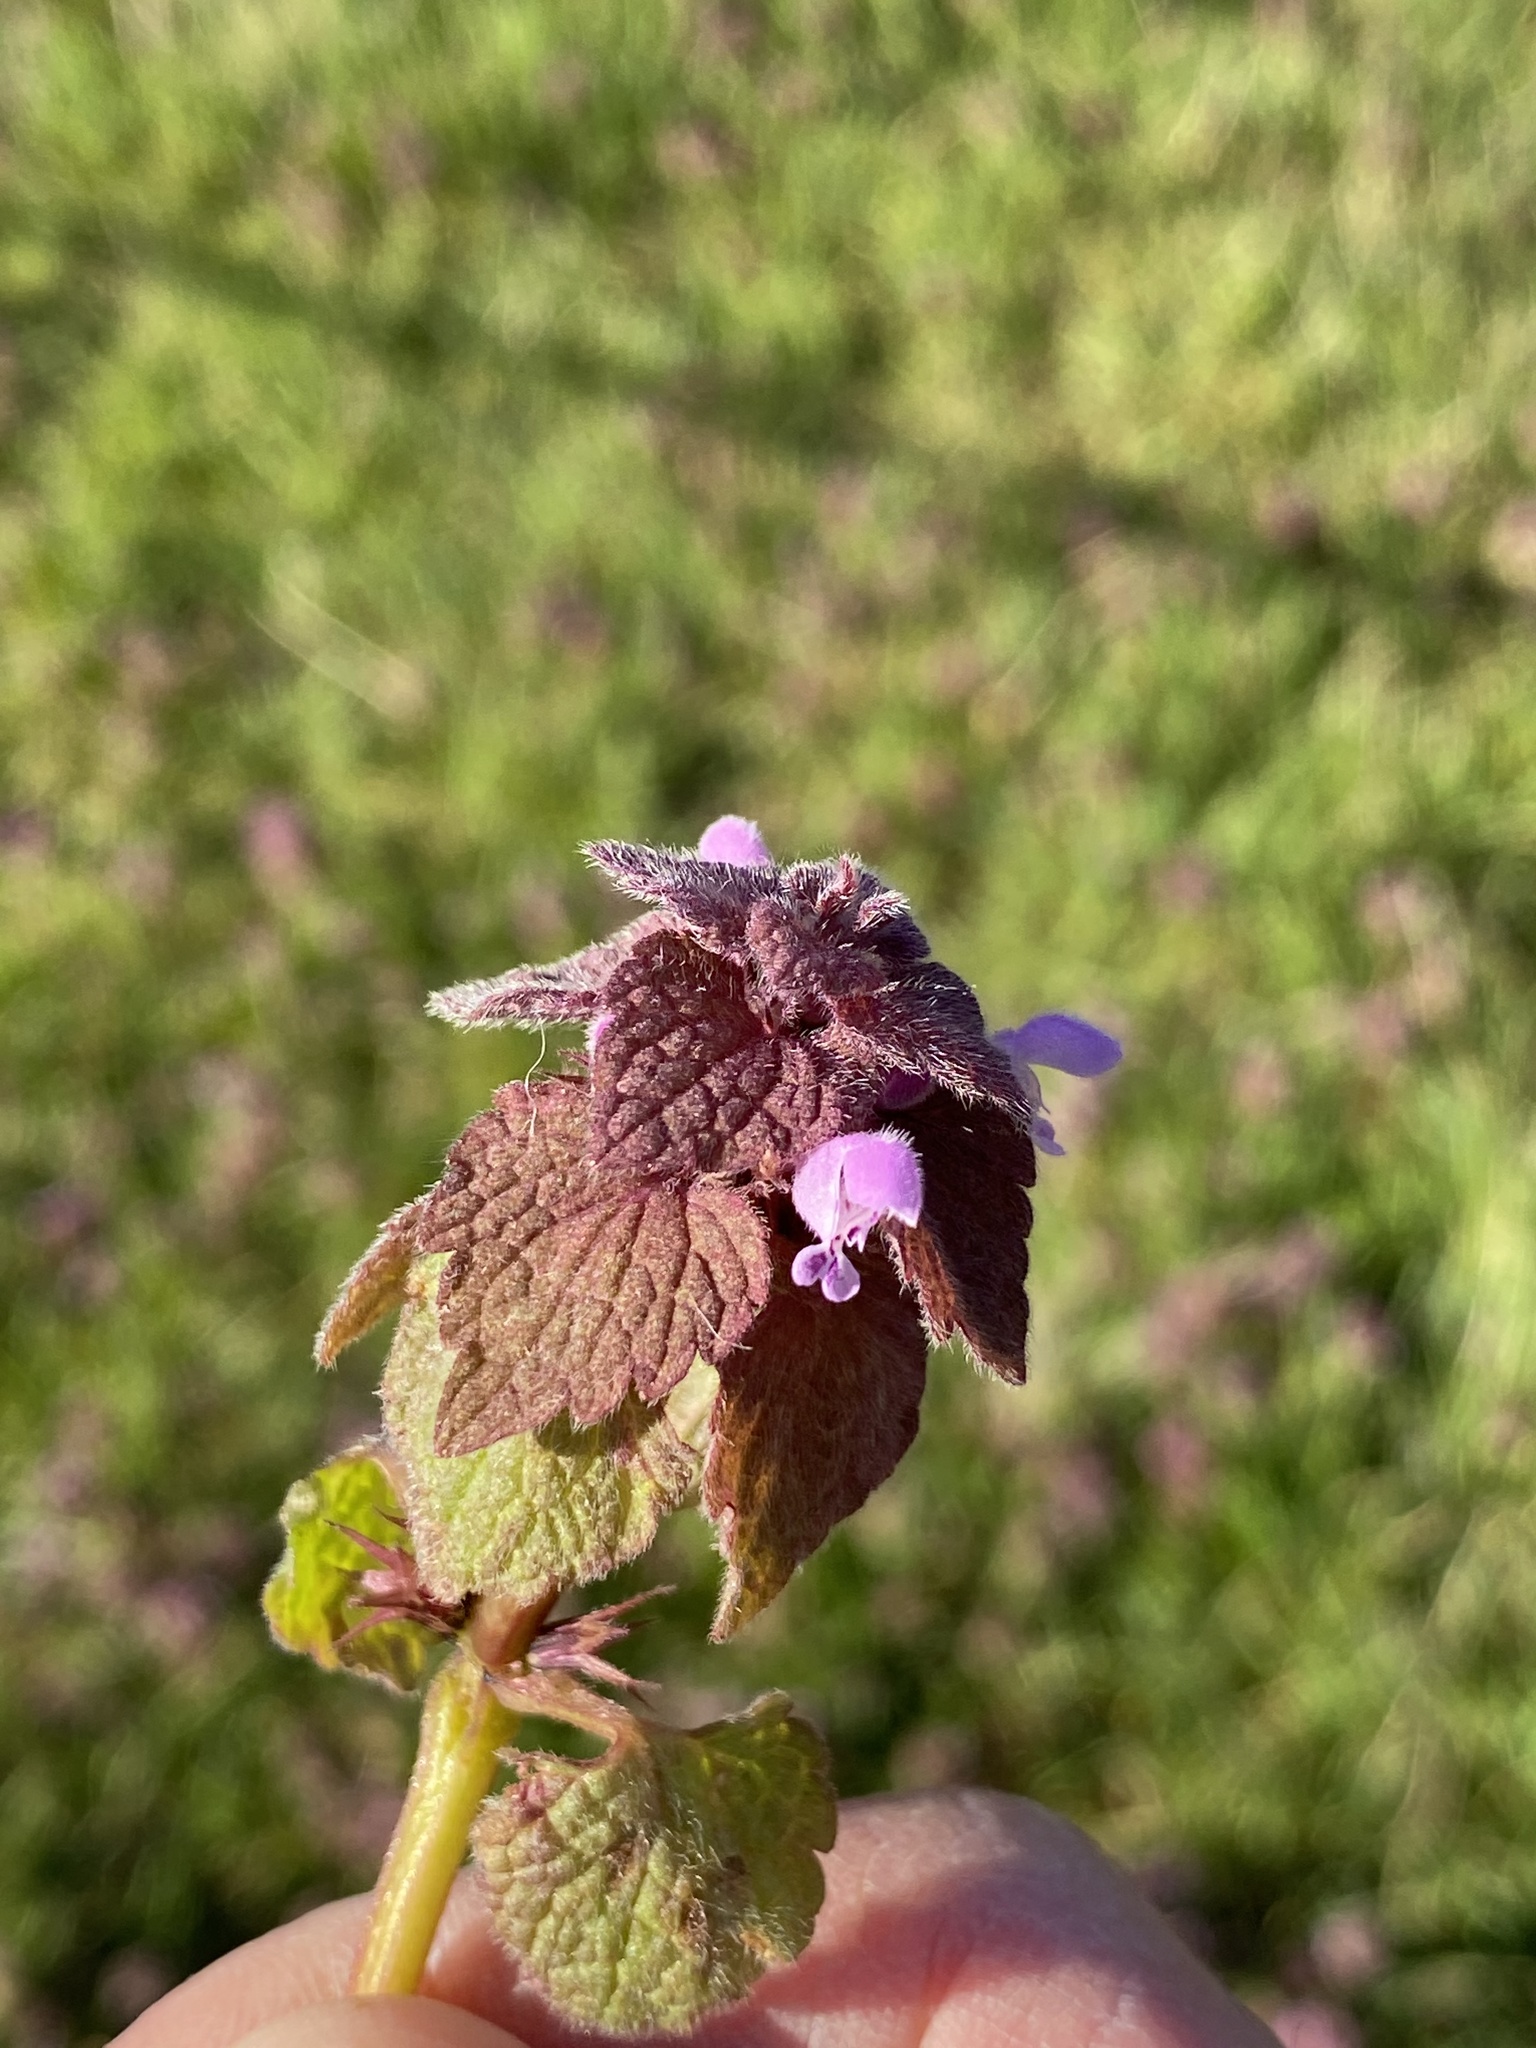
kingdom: Plantae
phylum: Tracheophyta
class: Magnoliopsida
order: Lamiales
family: Lamiaceae
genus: Lamium
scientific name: Lamium purpureum
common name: Red dead-nettle
